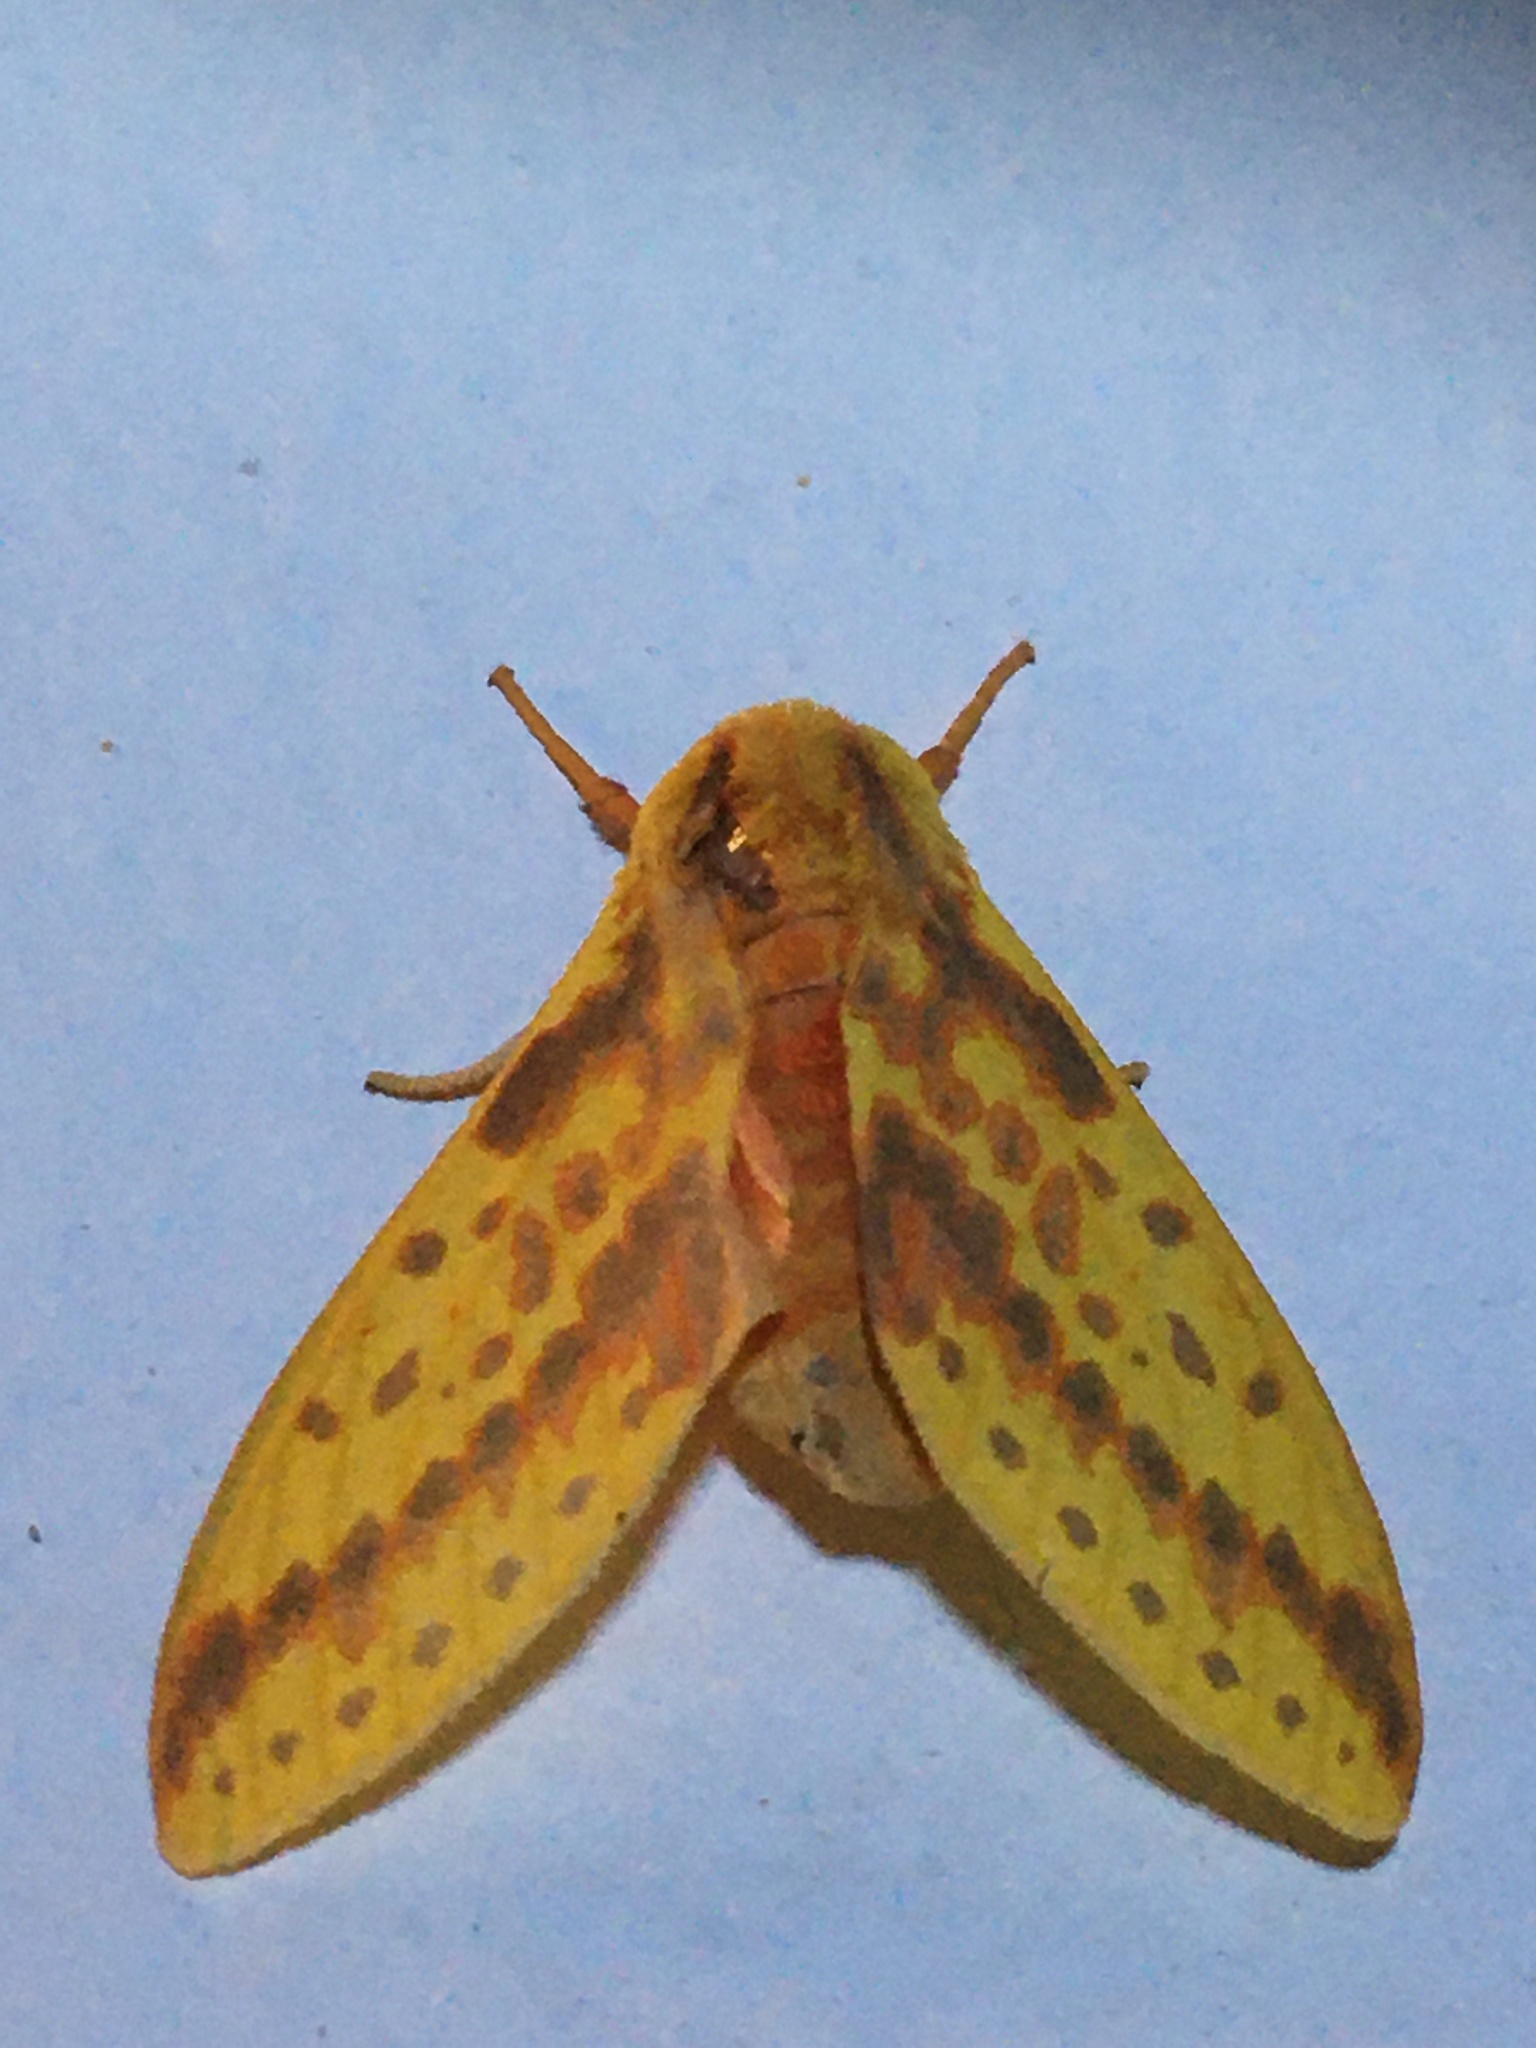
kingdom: Animalia
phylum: Arthropoda
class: Insecta
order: Lepidoptera
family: Erebidae
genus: Symphlebia
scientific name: Symphlebia ipsea
